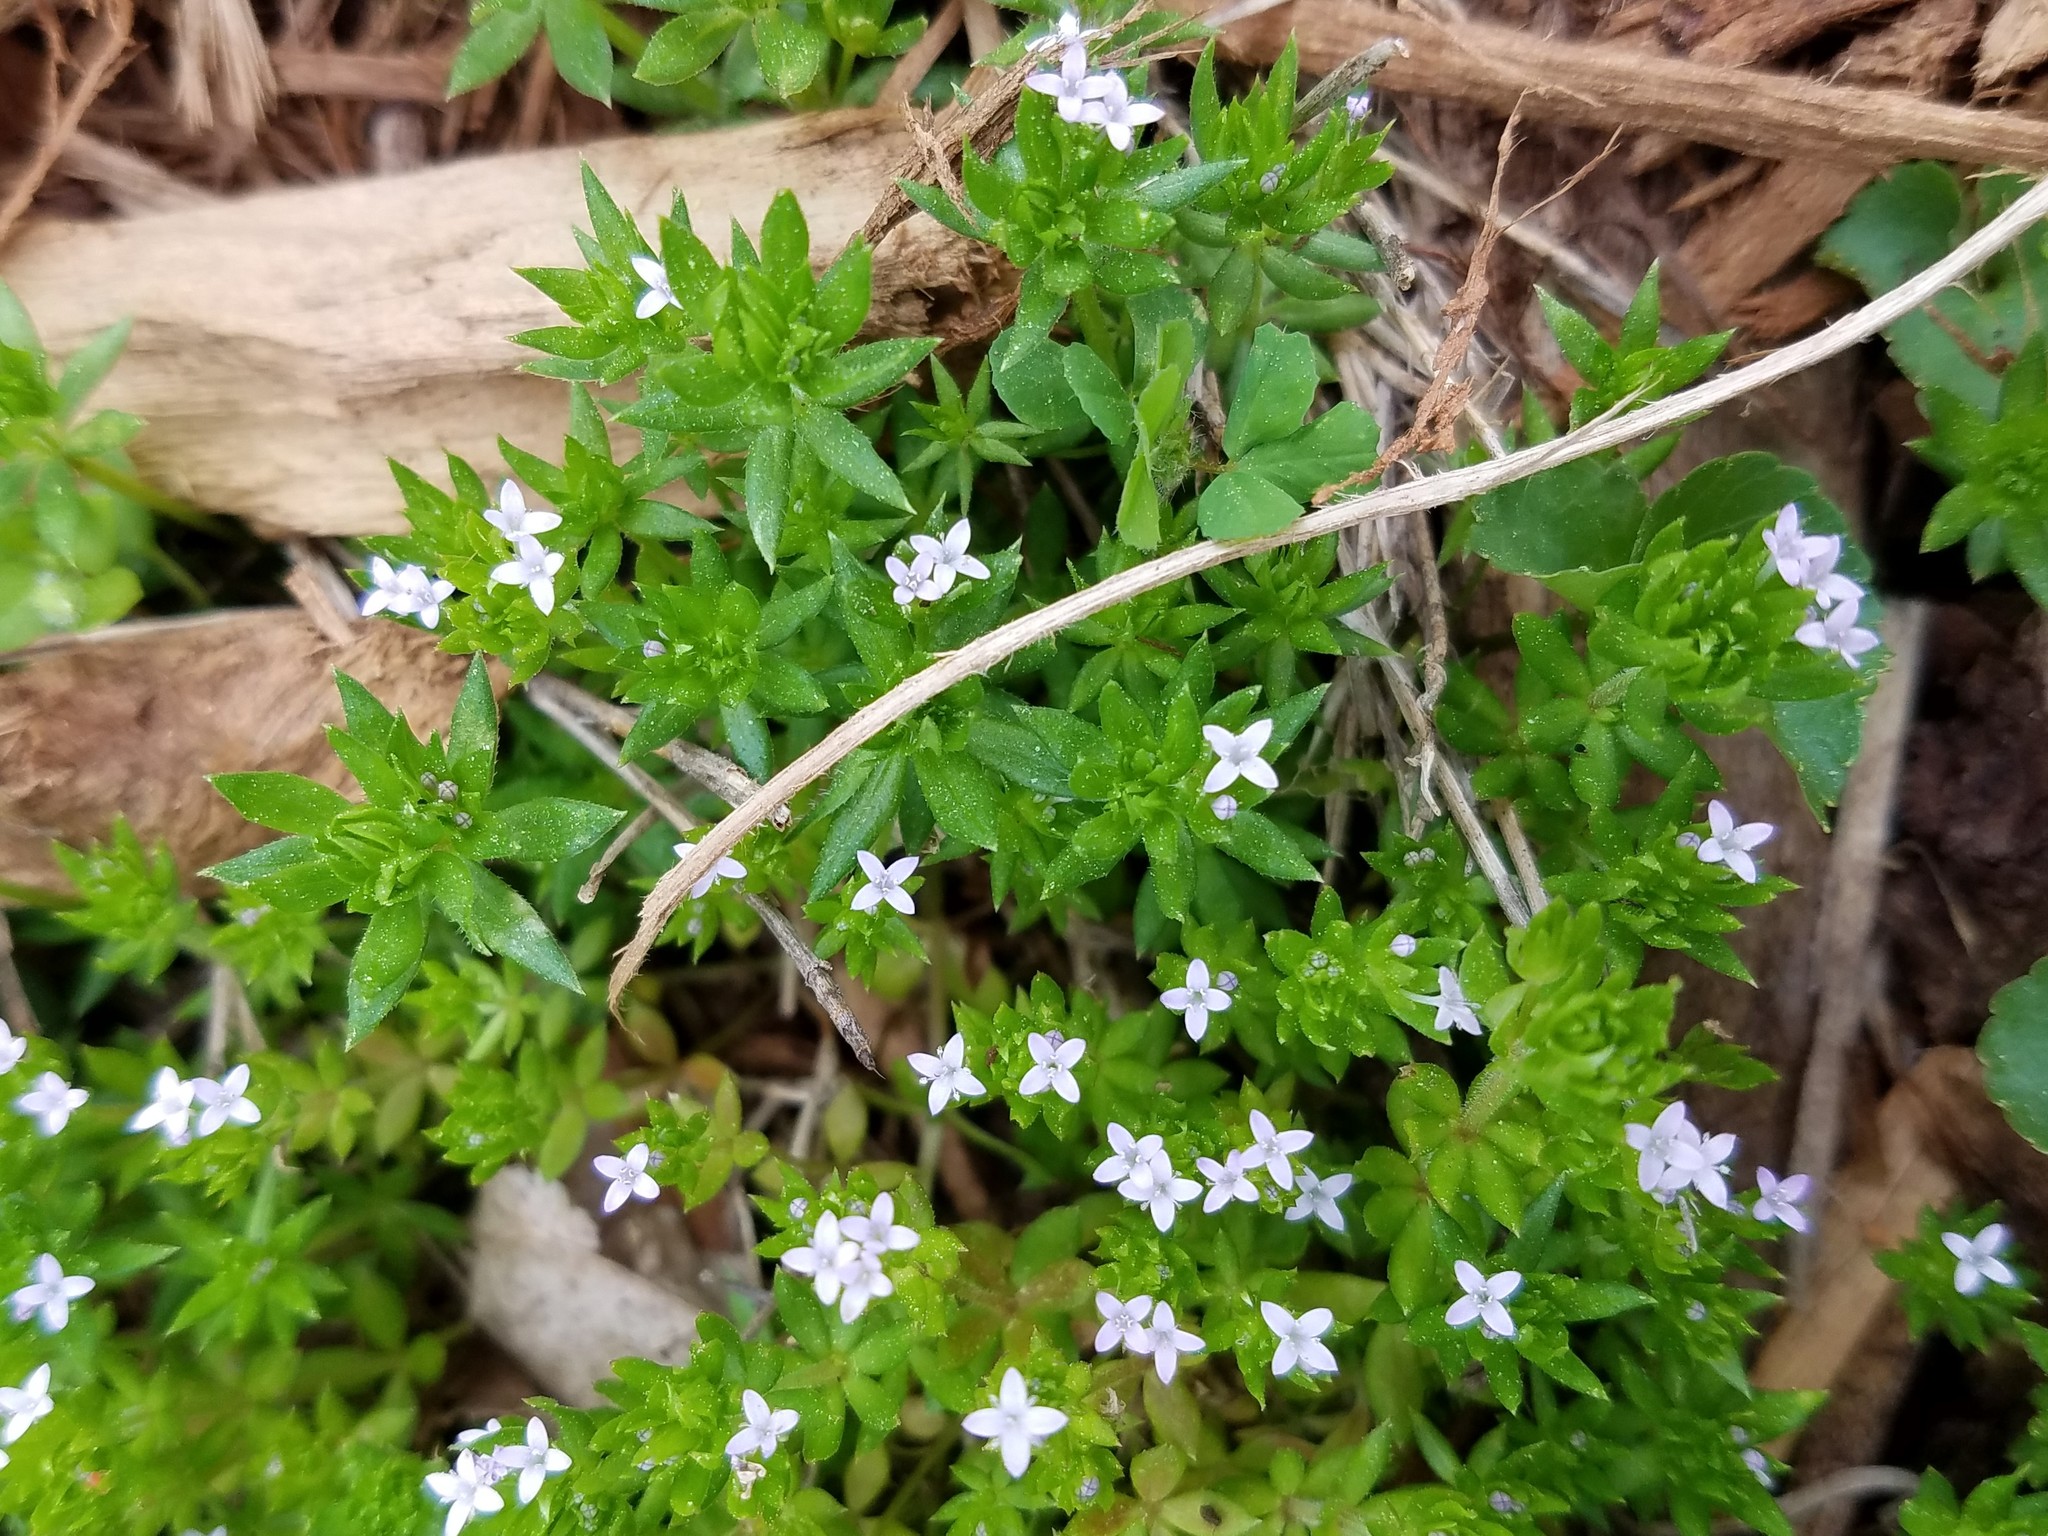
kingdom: Plantae
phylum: Tracheophyta
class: Magnoliopsida
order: Gentianales
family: Rubiaceae
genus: Sherardia
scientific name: Sherardia arvensis
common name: Field madder
